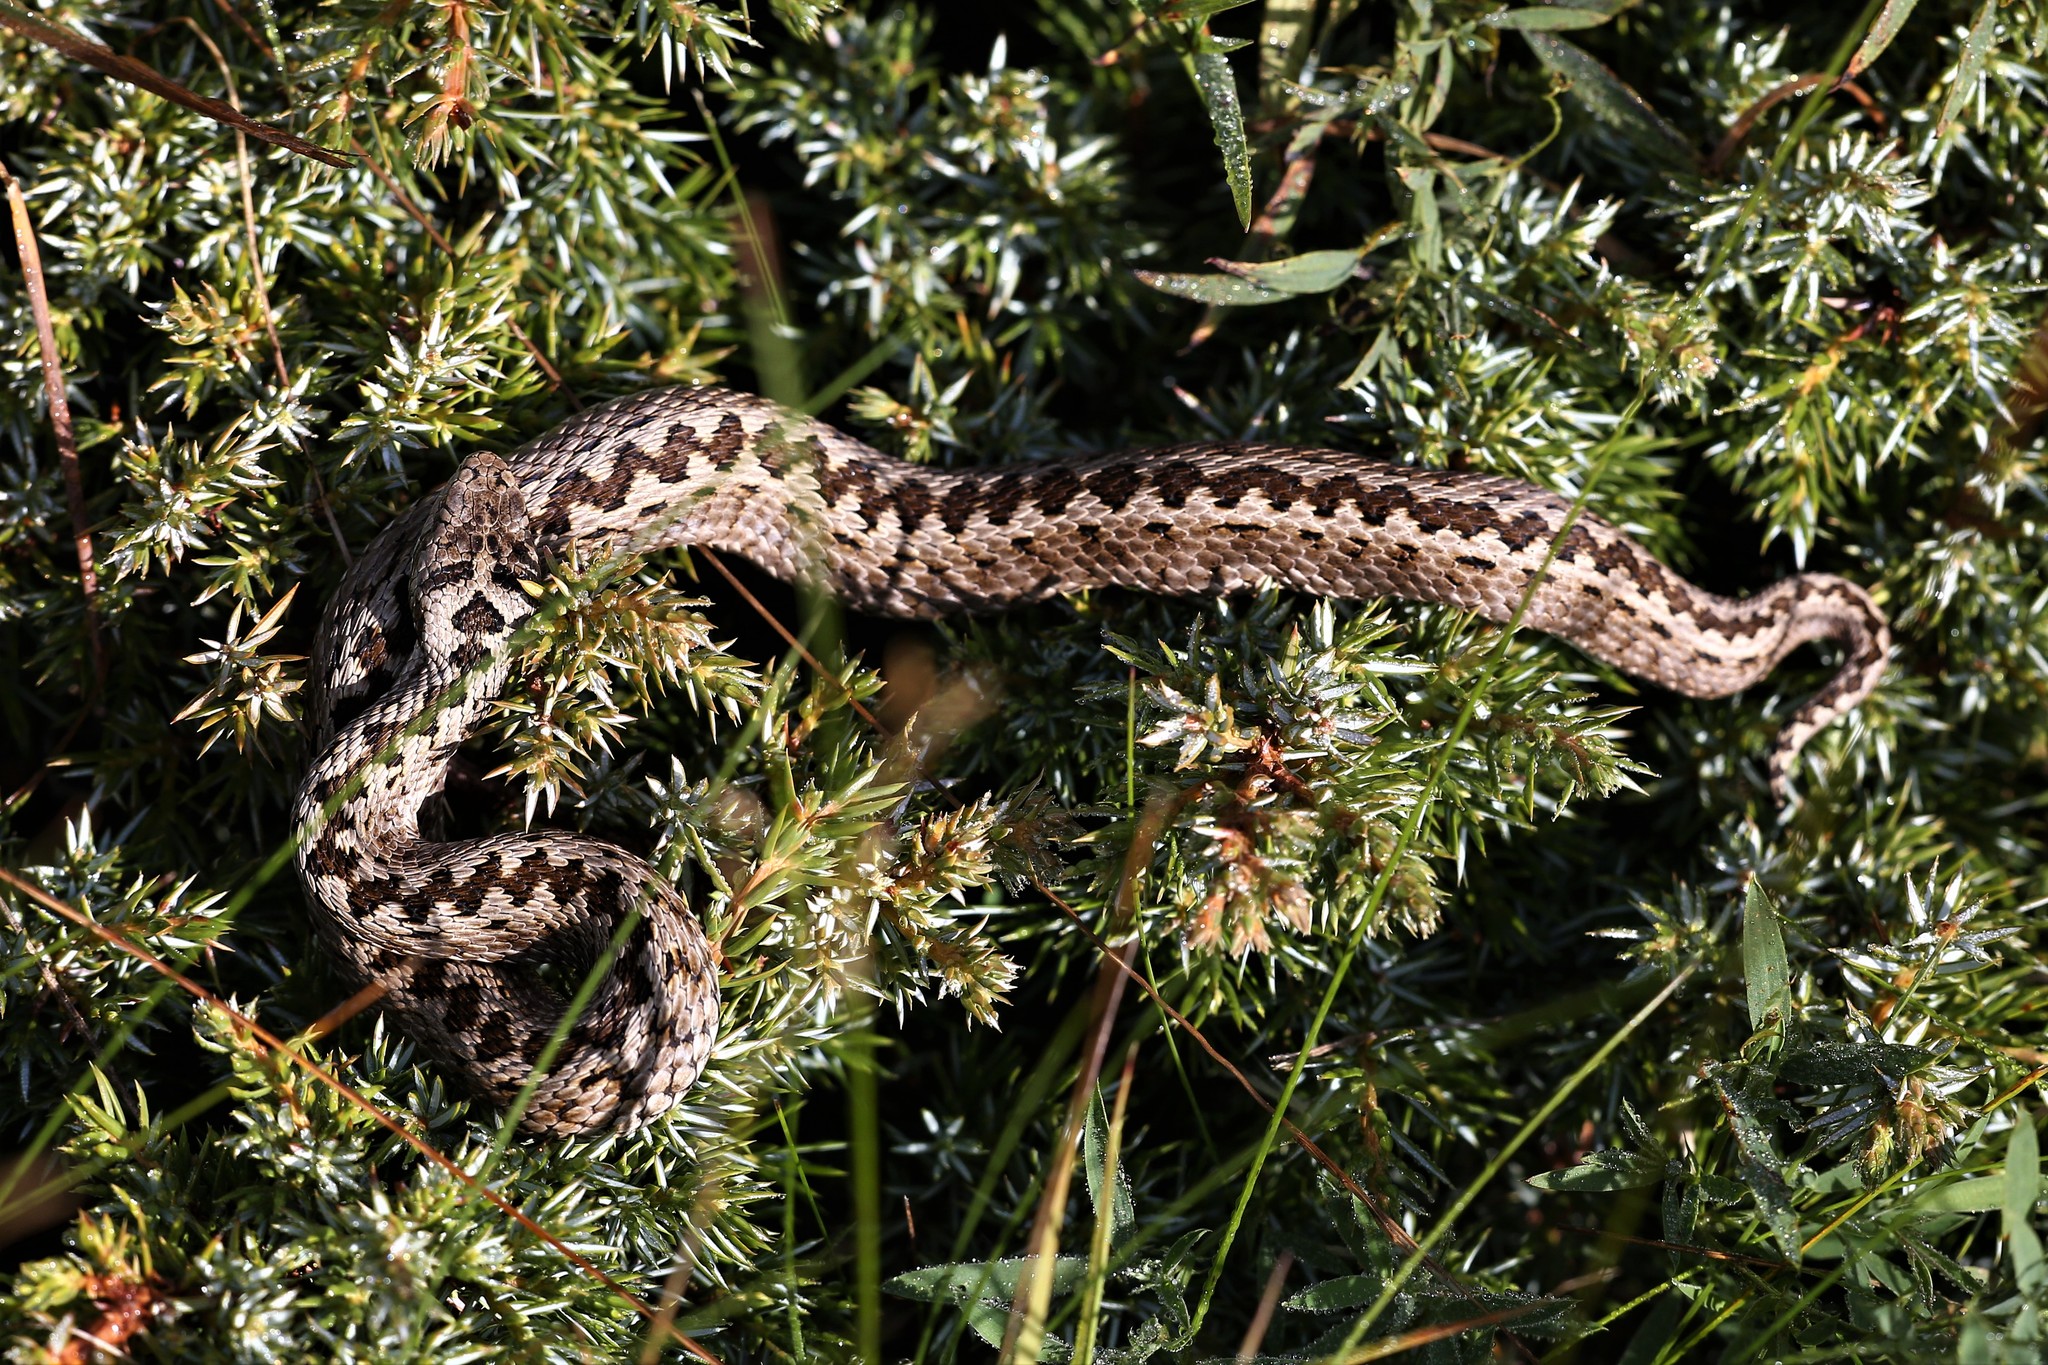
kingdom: Animalia
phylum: Chordata
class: Squamata
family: Viperidae
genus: Vipera
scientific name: Vipera ursinii
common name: Meadow viper
